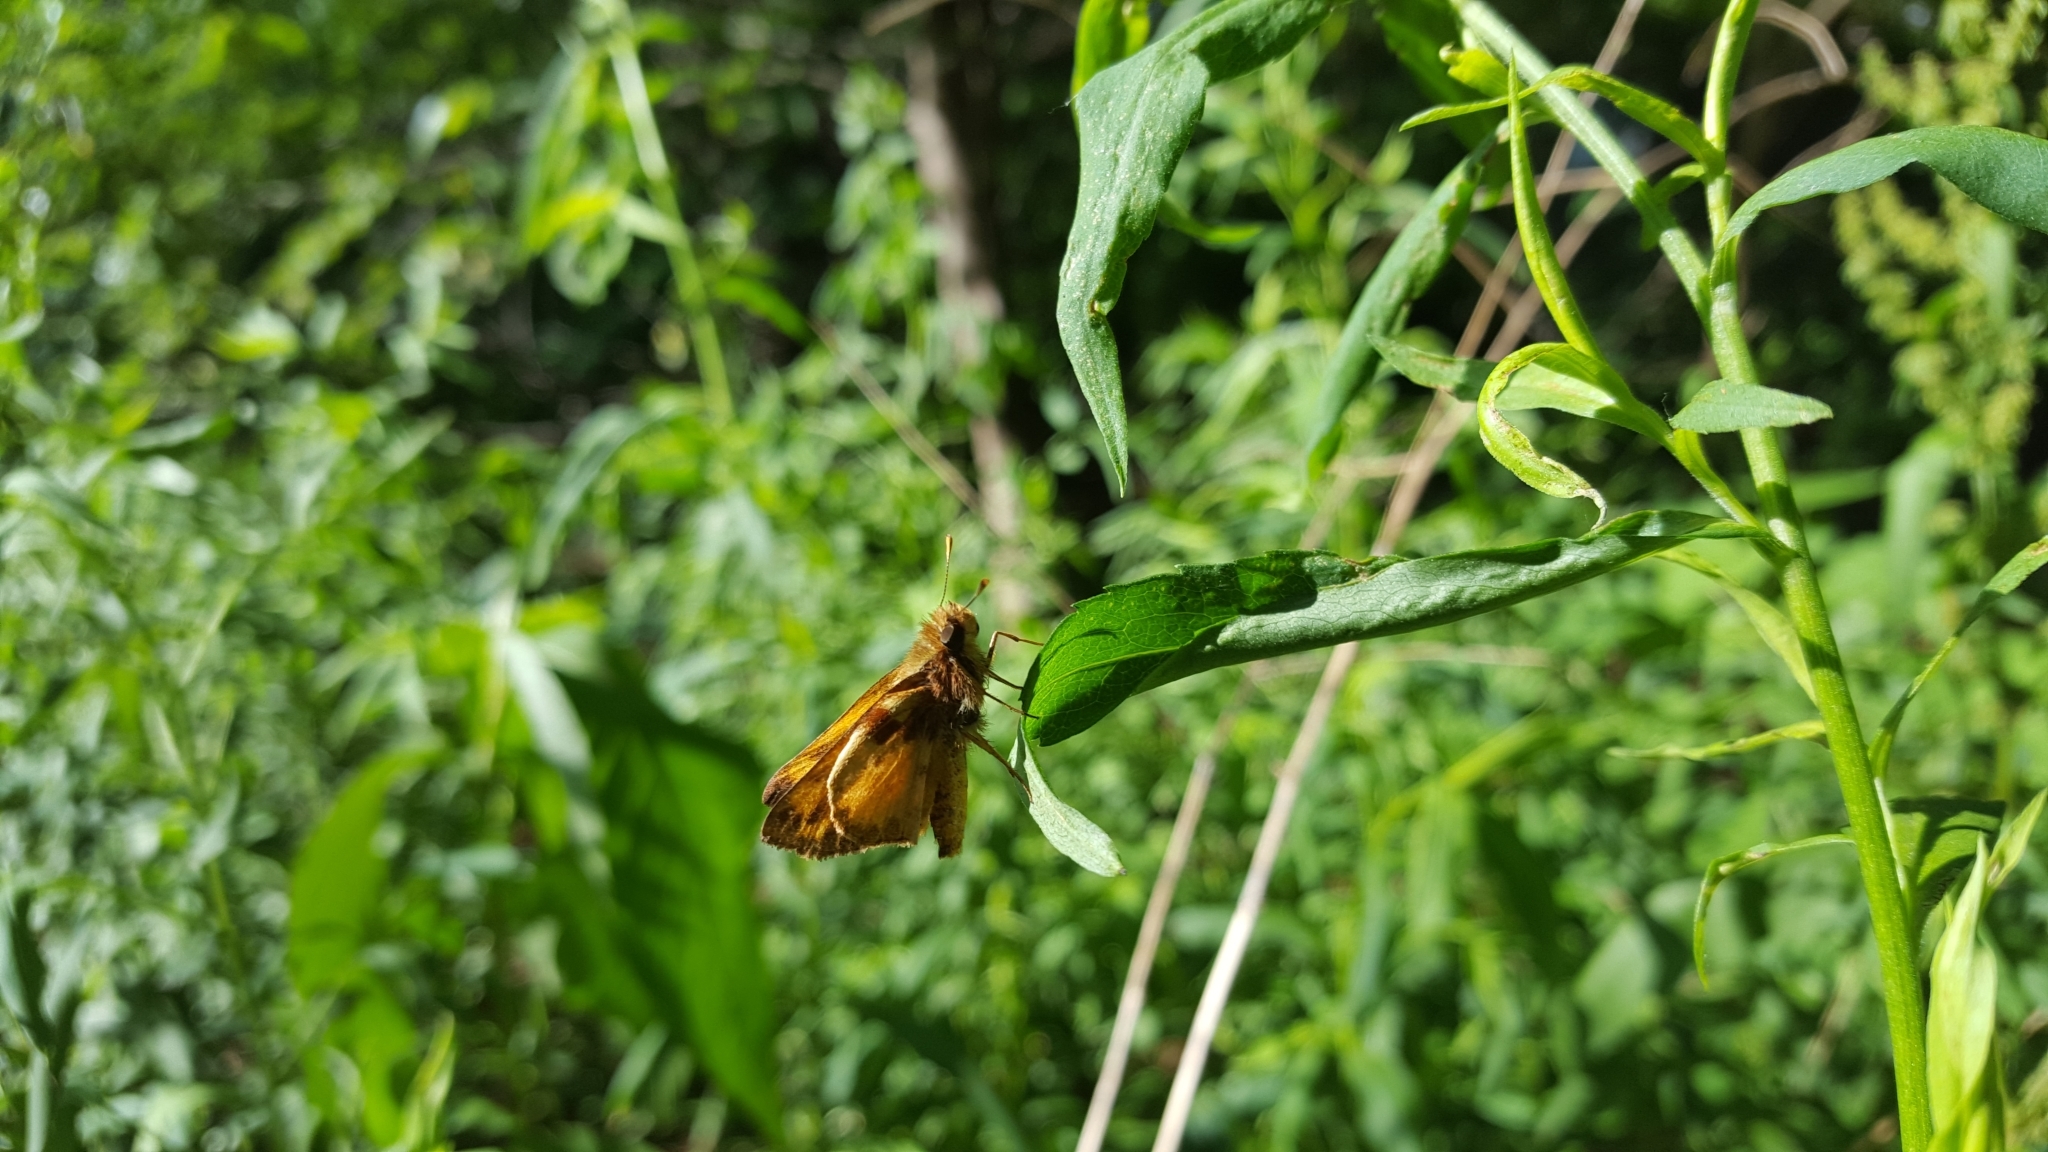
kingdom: Animalia
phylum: Arthropoda
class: Insecta
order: Lepidoptera
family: Hesperiidae
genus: Lon
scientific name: Lon zabulon
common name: Zabulon skipper
